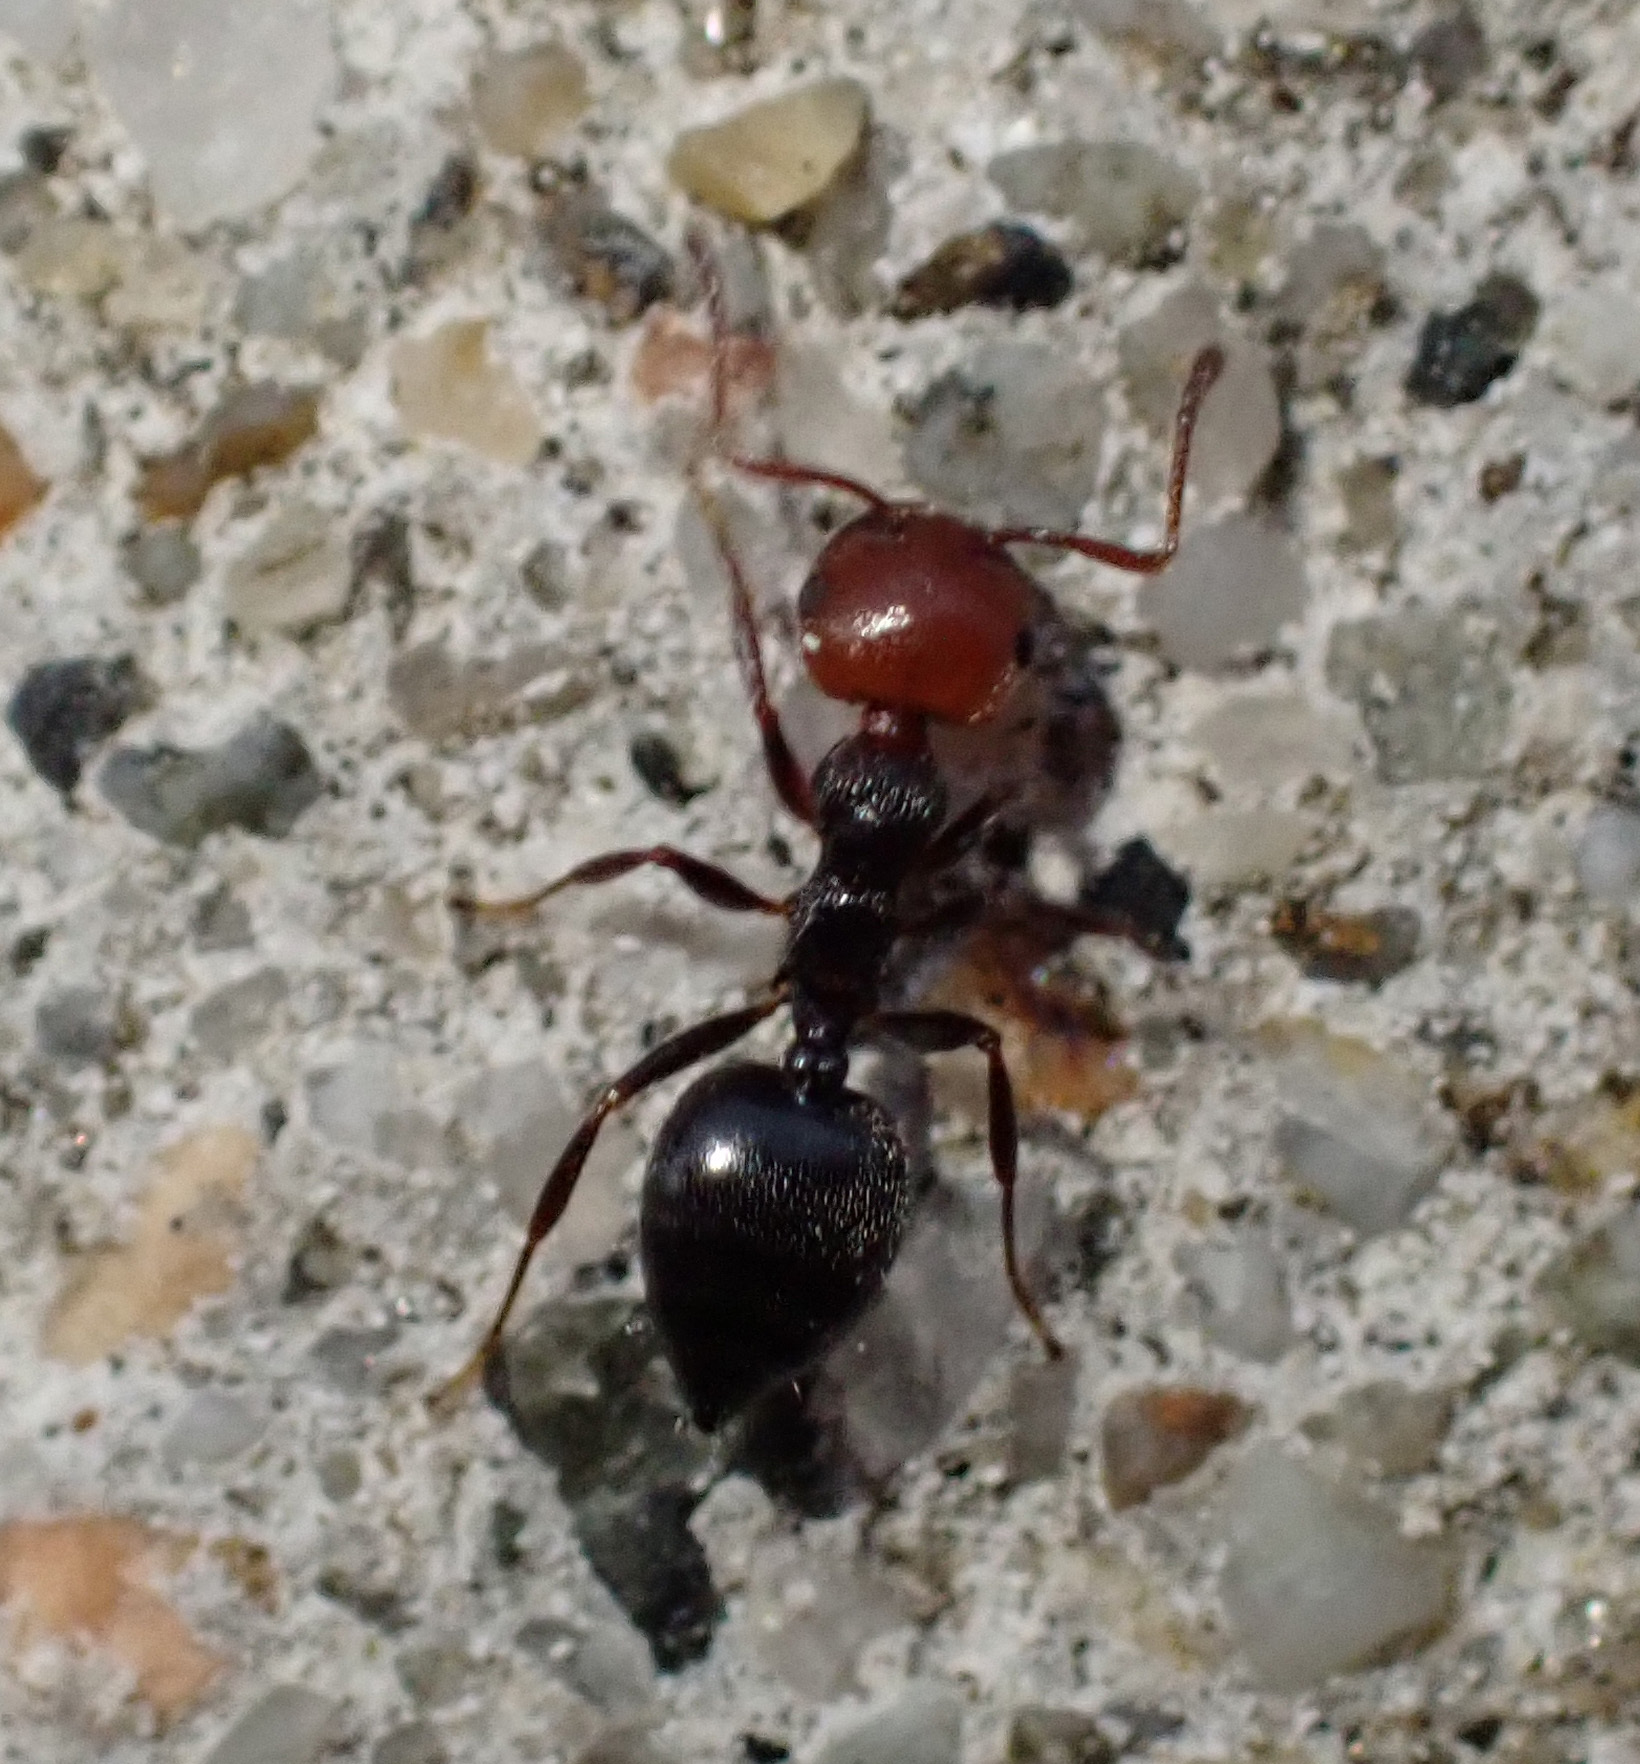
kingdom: Animalia
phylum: Arthropoda
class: Insecta
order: Hymenoptera
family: Formicidae
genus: Crematogaster
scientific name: Crematogaster scutellaris
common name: Fourmi du liège
